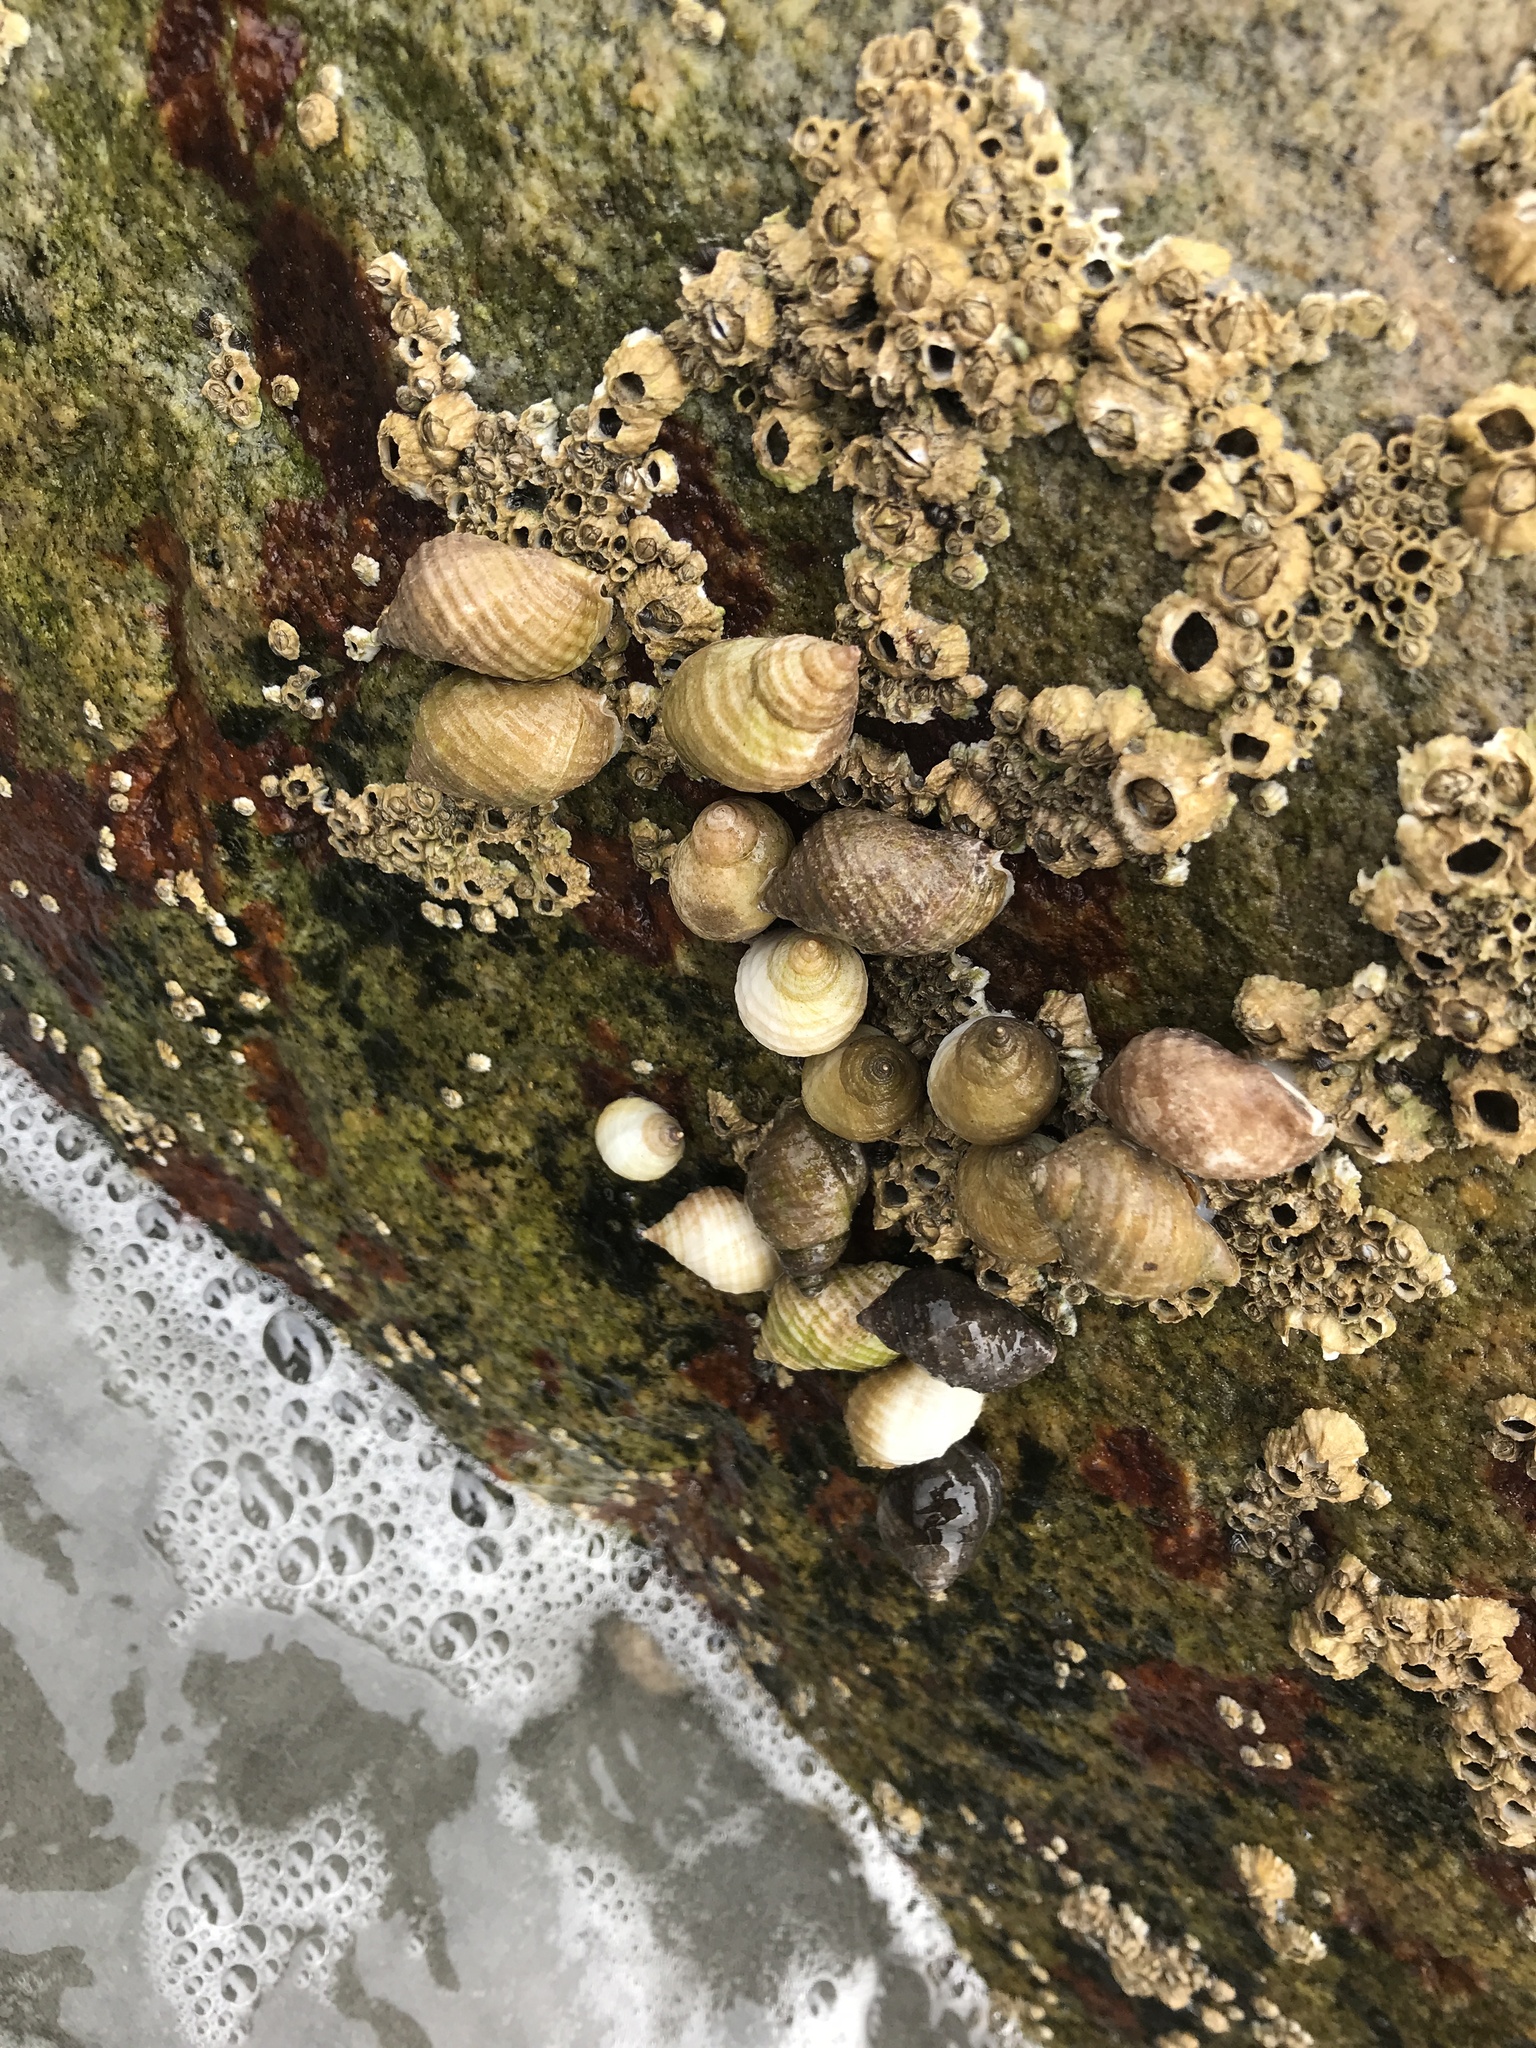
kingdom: Animalia
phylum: Mollusca
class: Gastropoda
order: Neogastropoda
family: Muricidae
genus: Nucella
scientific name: Nucella lapillus
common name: Dog whelk
